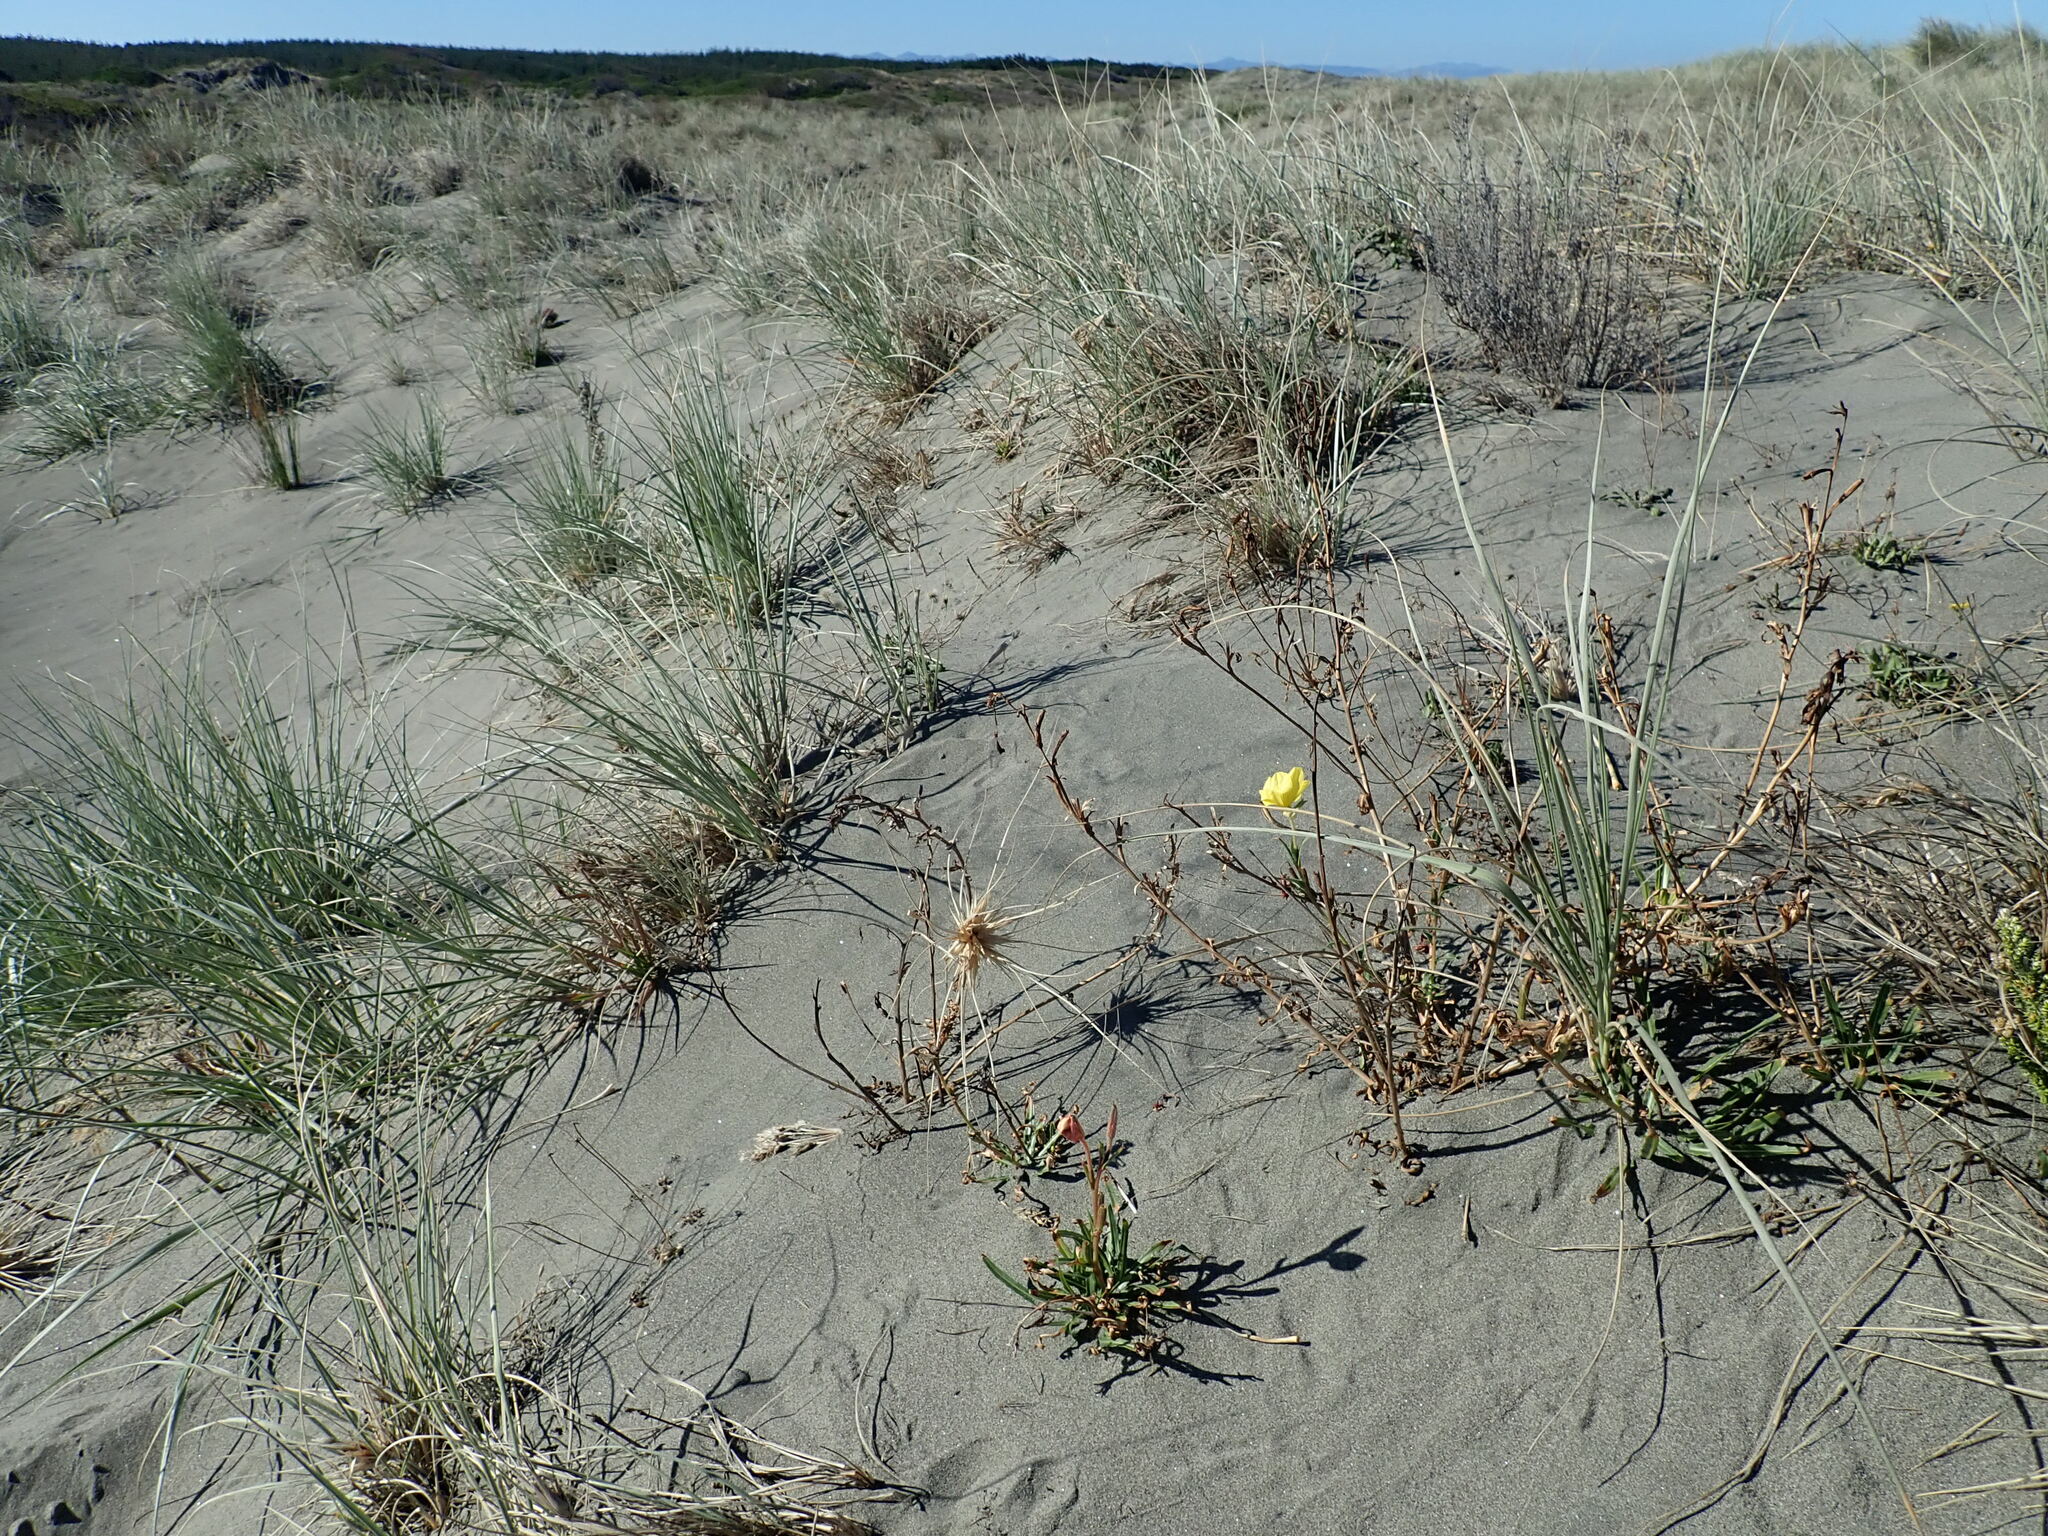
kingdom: Plantae
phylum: Tracheophyta
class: Magnoliopsida
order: Myrtales
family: Onagraceae
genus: Oenothera
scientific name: Oenothera stricta
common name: Fragrant evening-primrose
